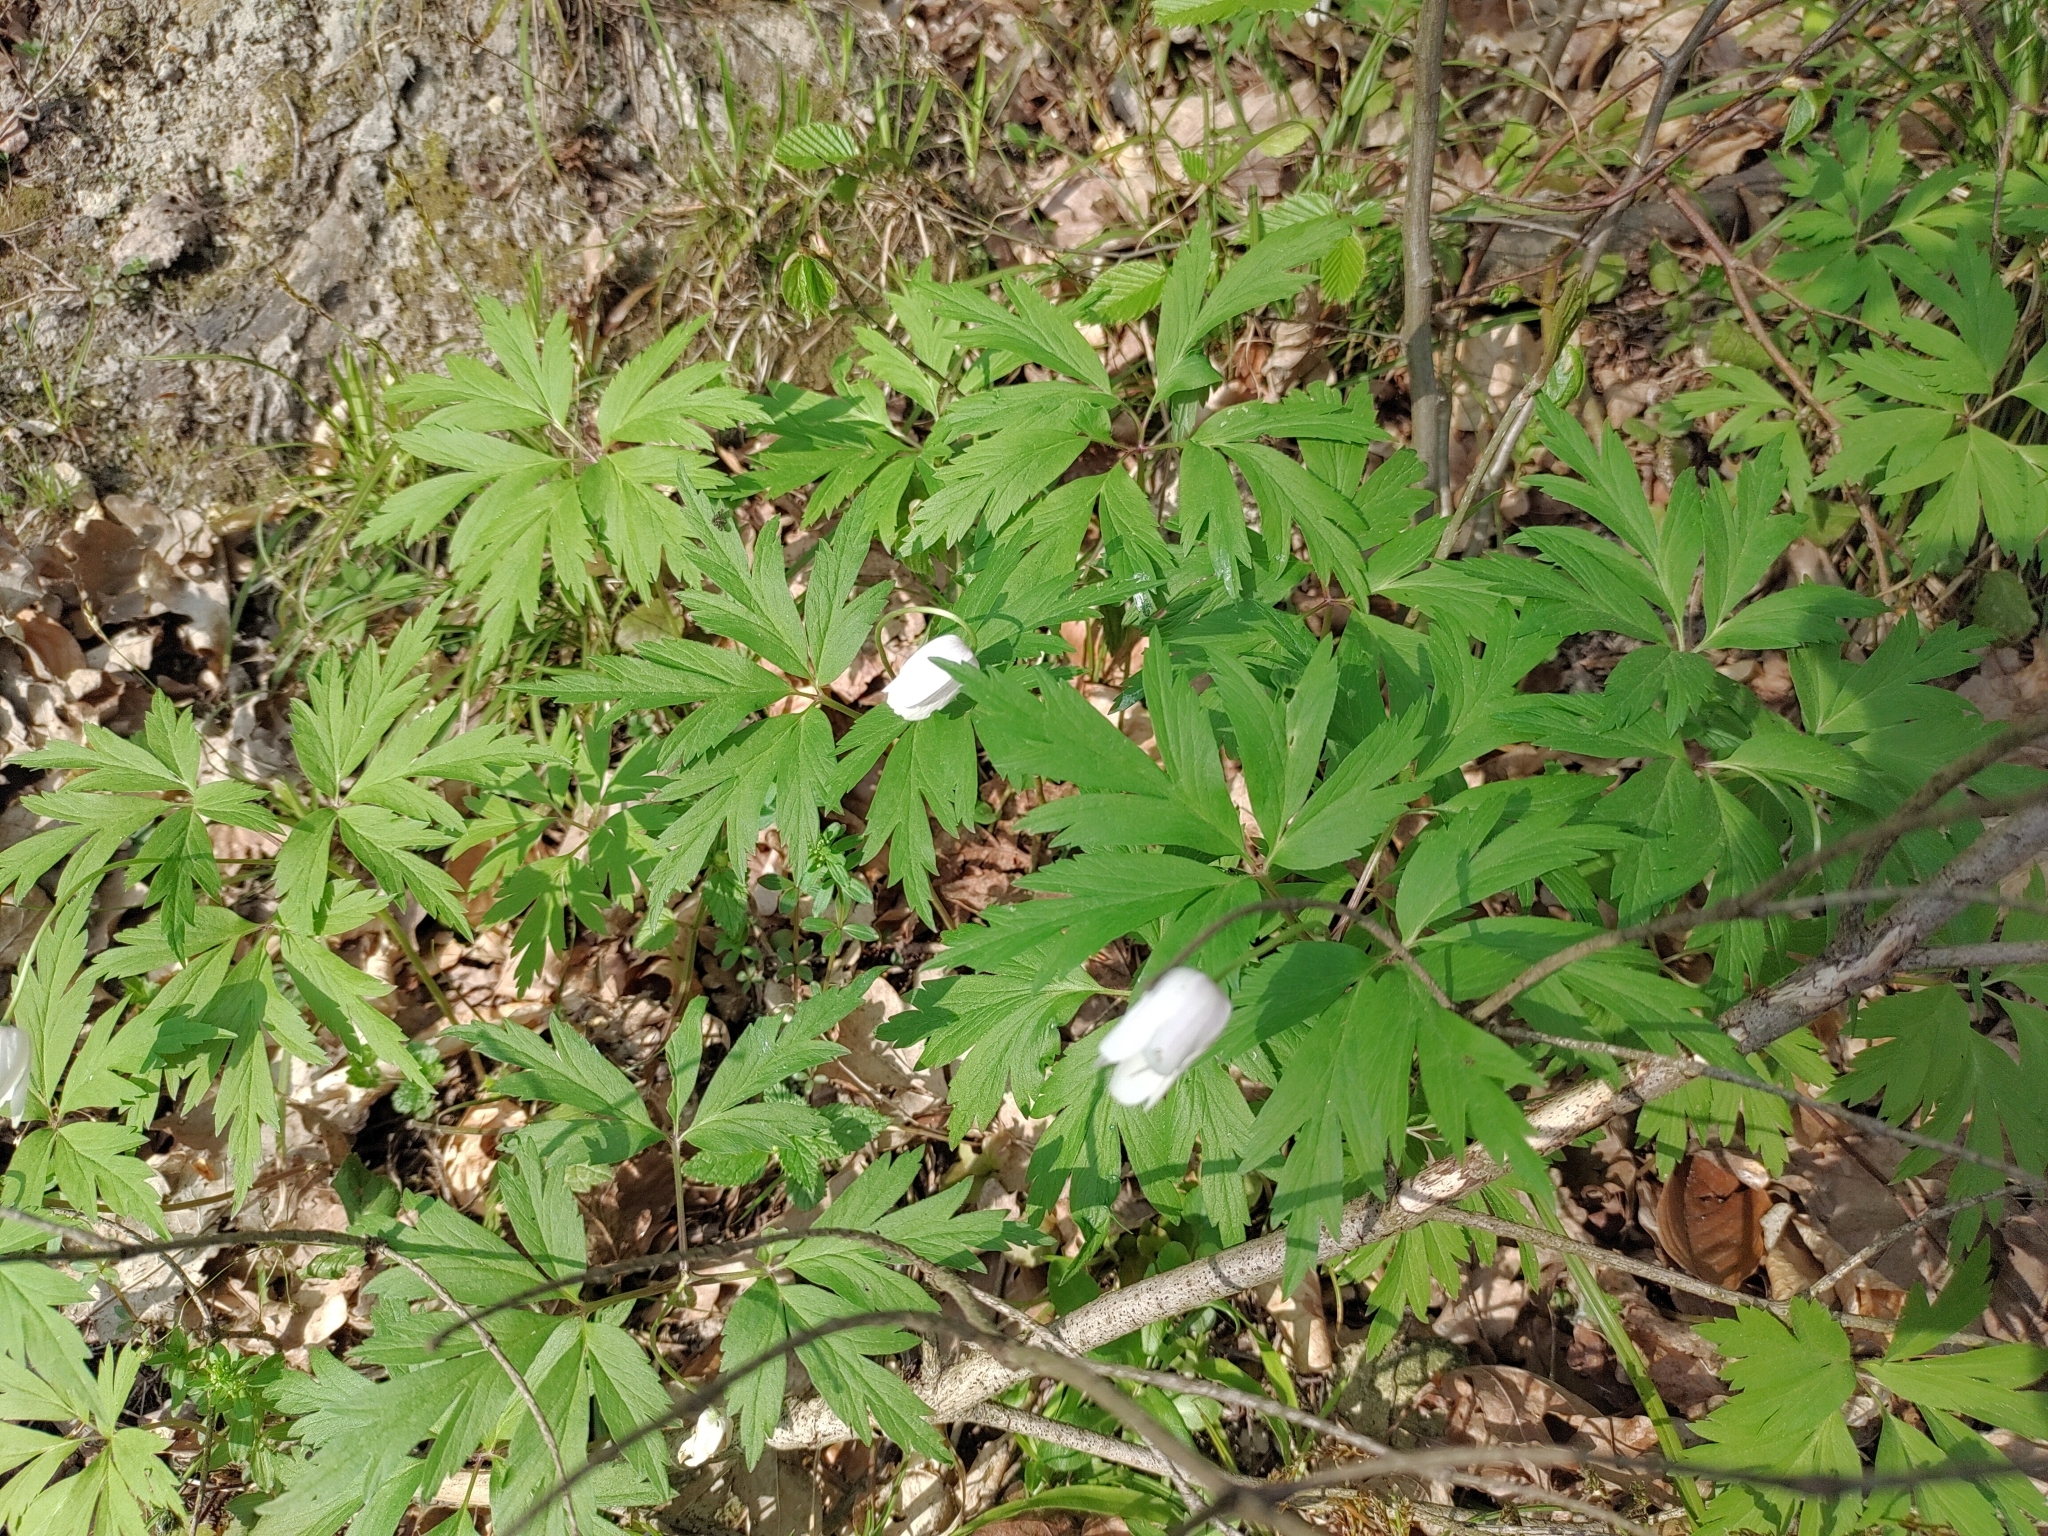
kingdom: Plantae
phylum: Tracheophyta
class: Magnoliopsida
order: Ranunculales
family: Ranunculaceae
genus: Anemone
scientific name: Anemone nemorosa
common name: Wood anemone
